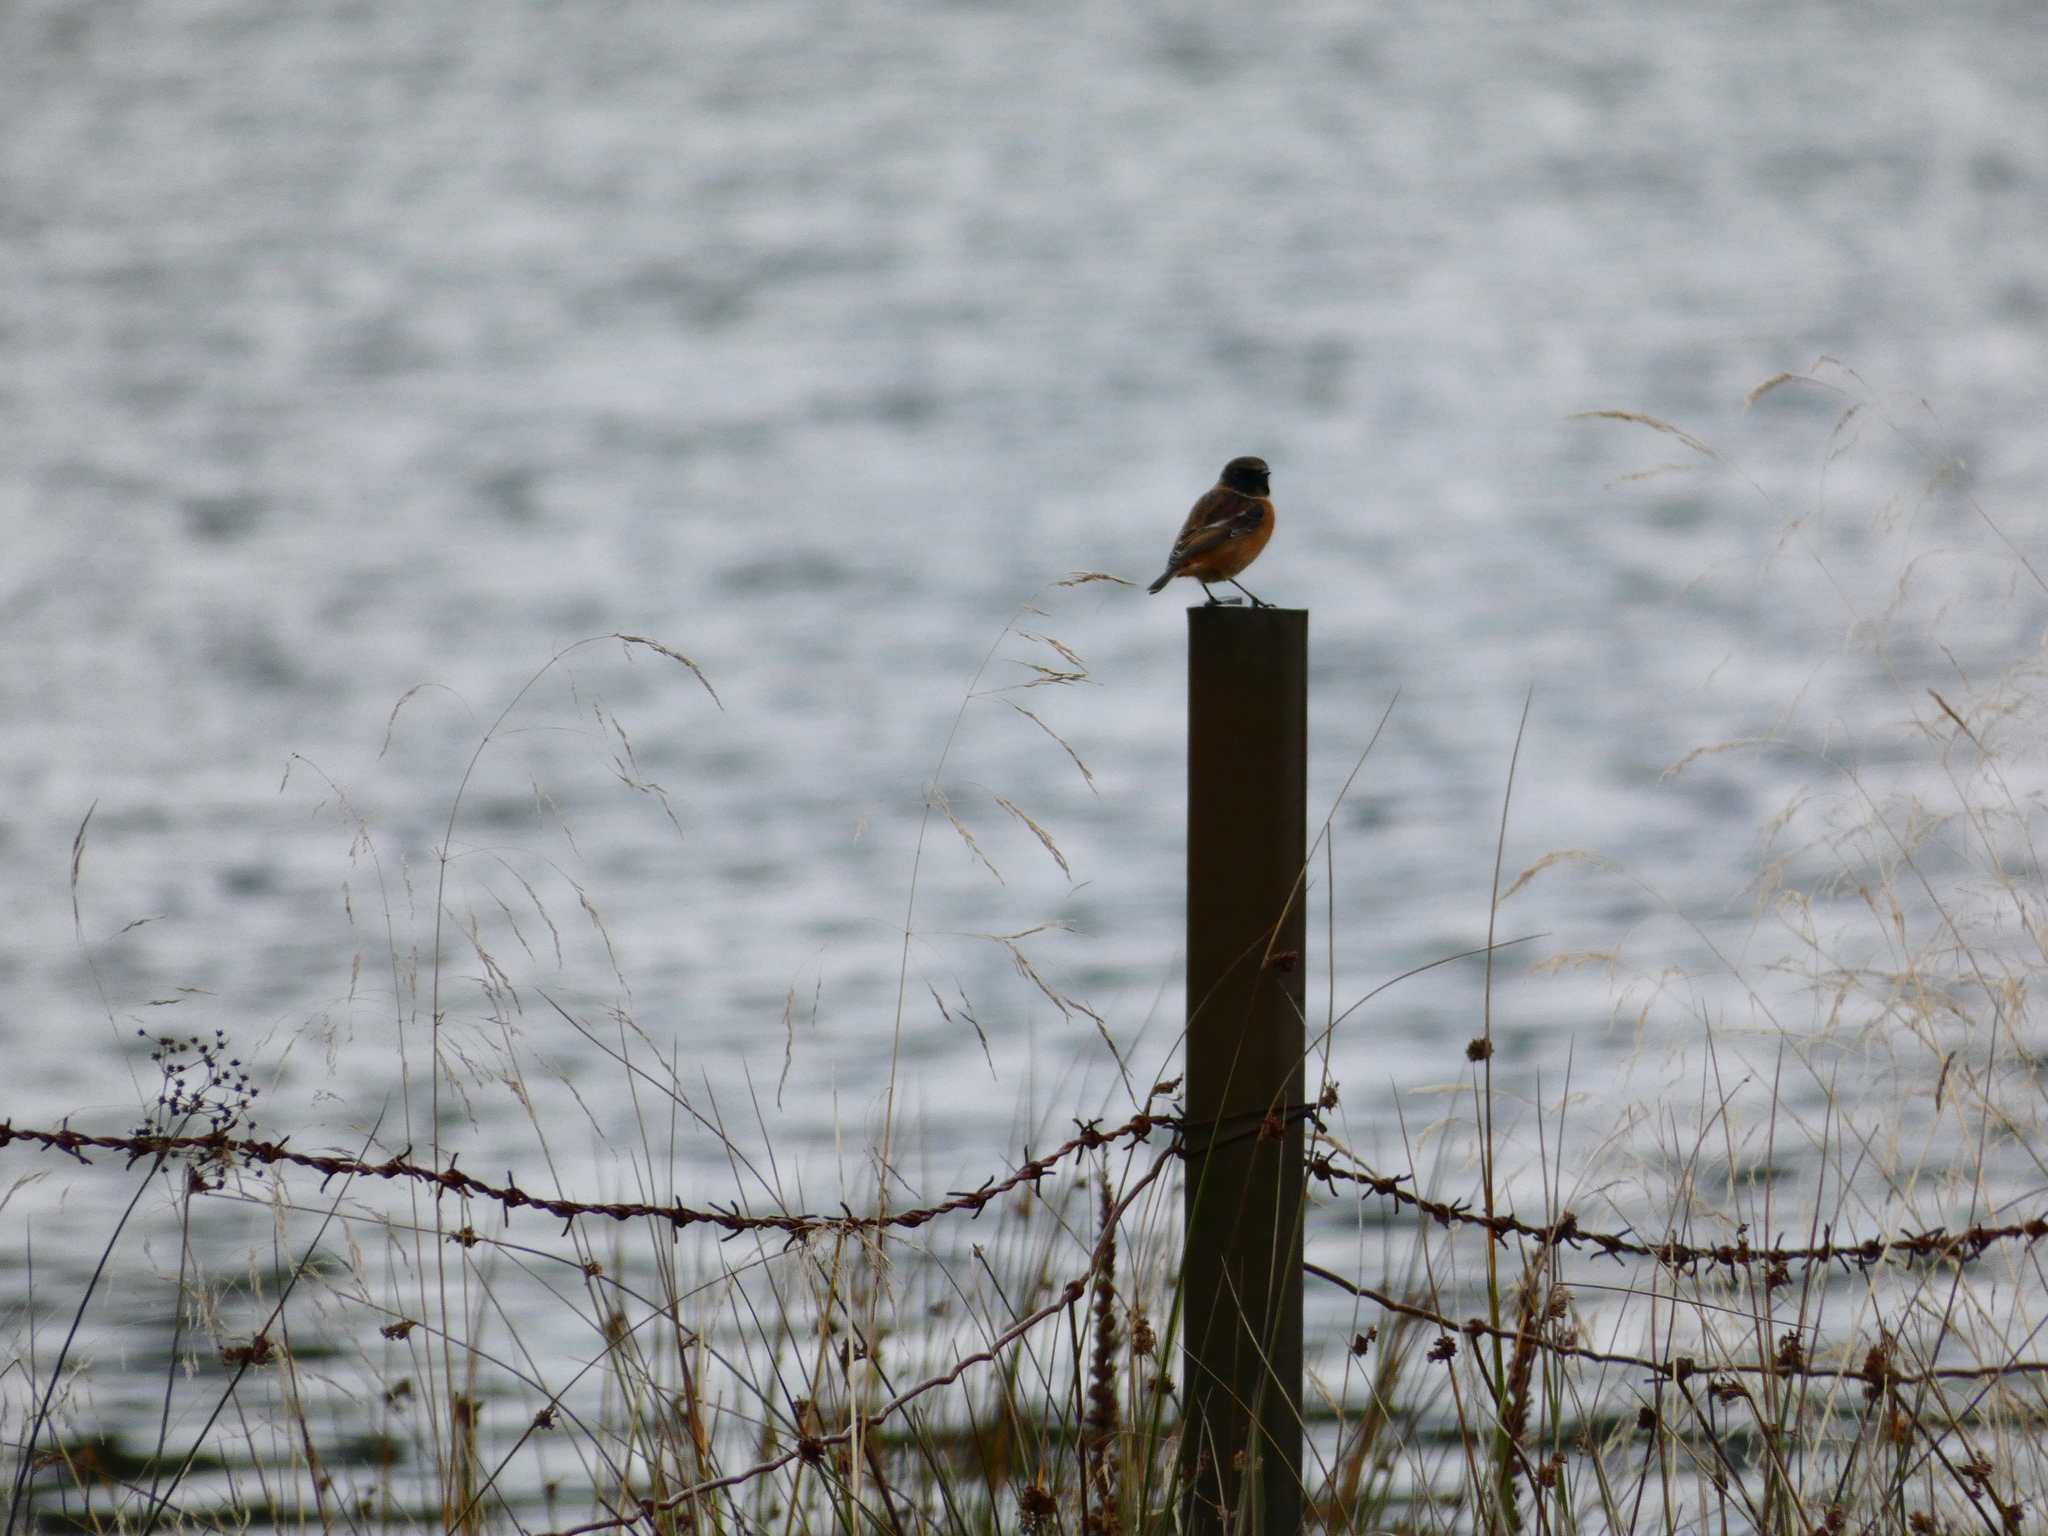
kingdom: Animalia
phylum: Chordata
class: Aves
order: Passeriformes
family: Muscicapidae
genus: Saxicola
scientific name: Saxicola rubicola
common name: European stonechat
